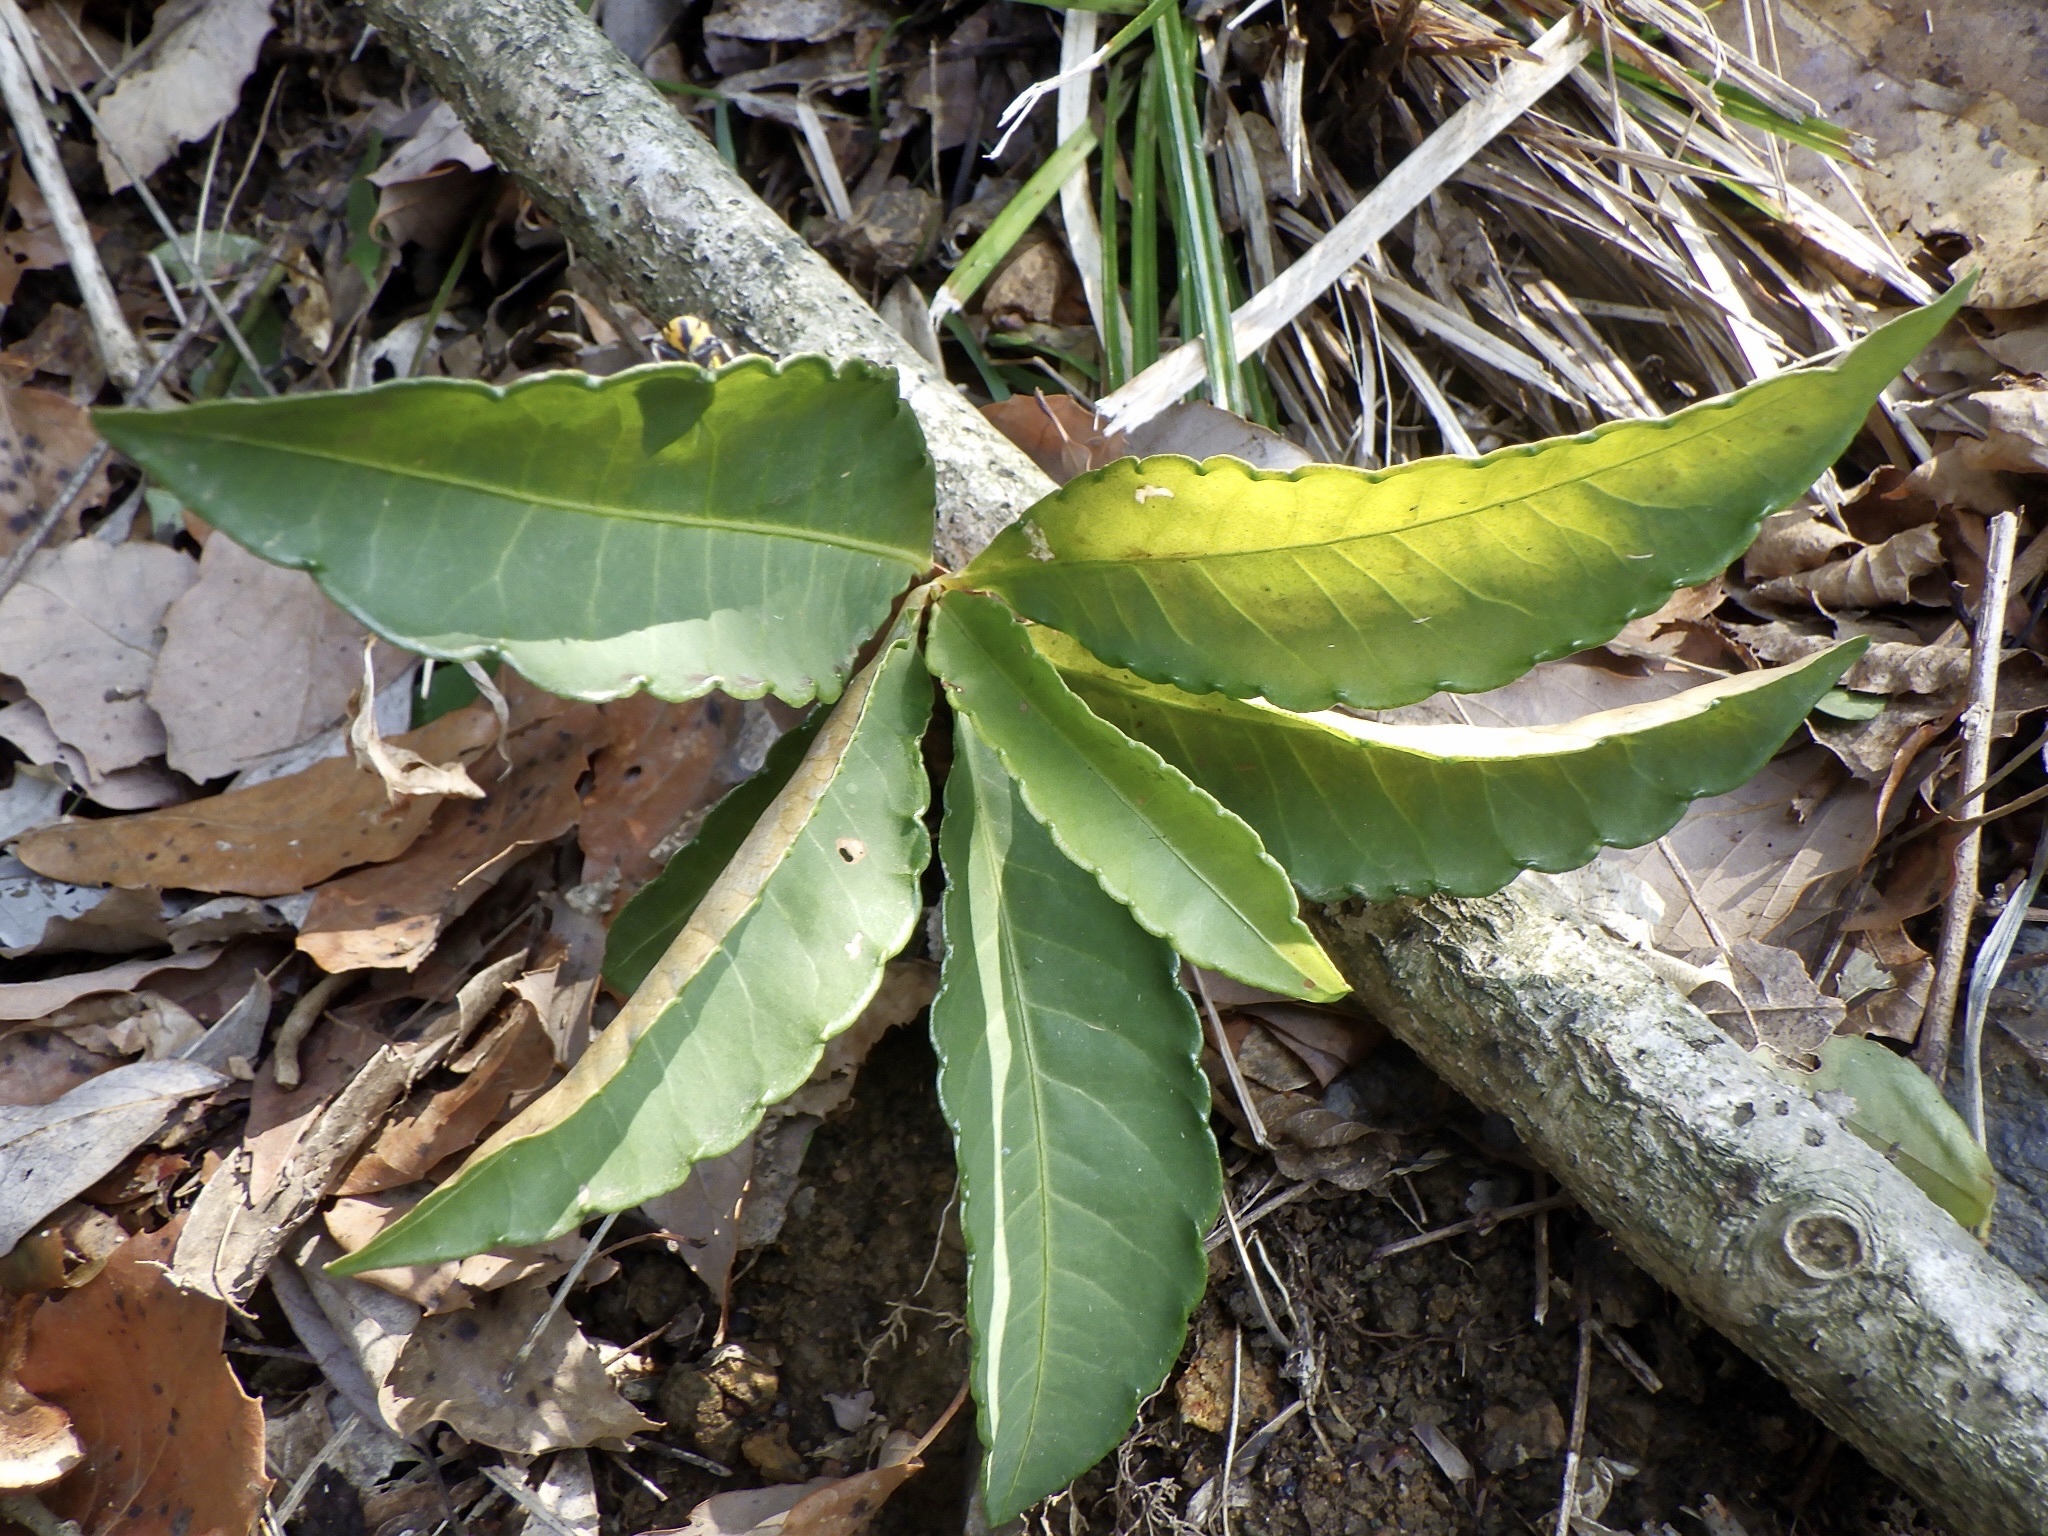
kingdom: Plantae
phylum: Tracheophyta
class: Magnoliopsida
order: Ericales
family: Primulaceae
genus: Ardisia
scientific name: Ardisia crenata
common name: Hen's eyes
